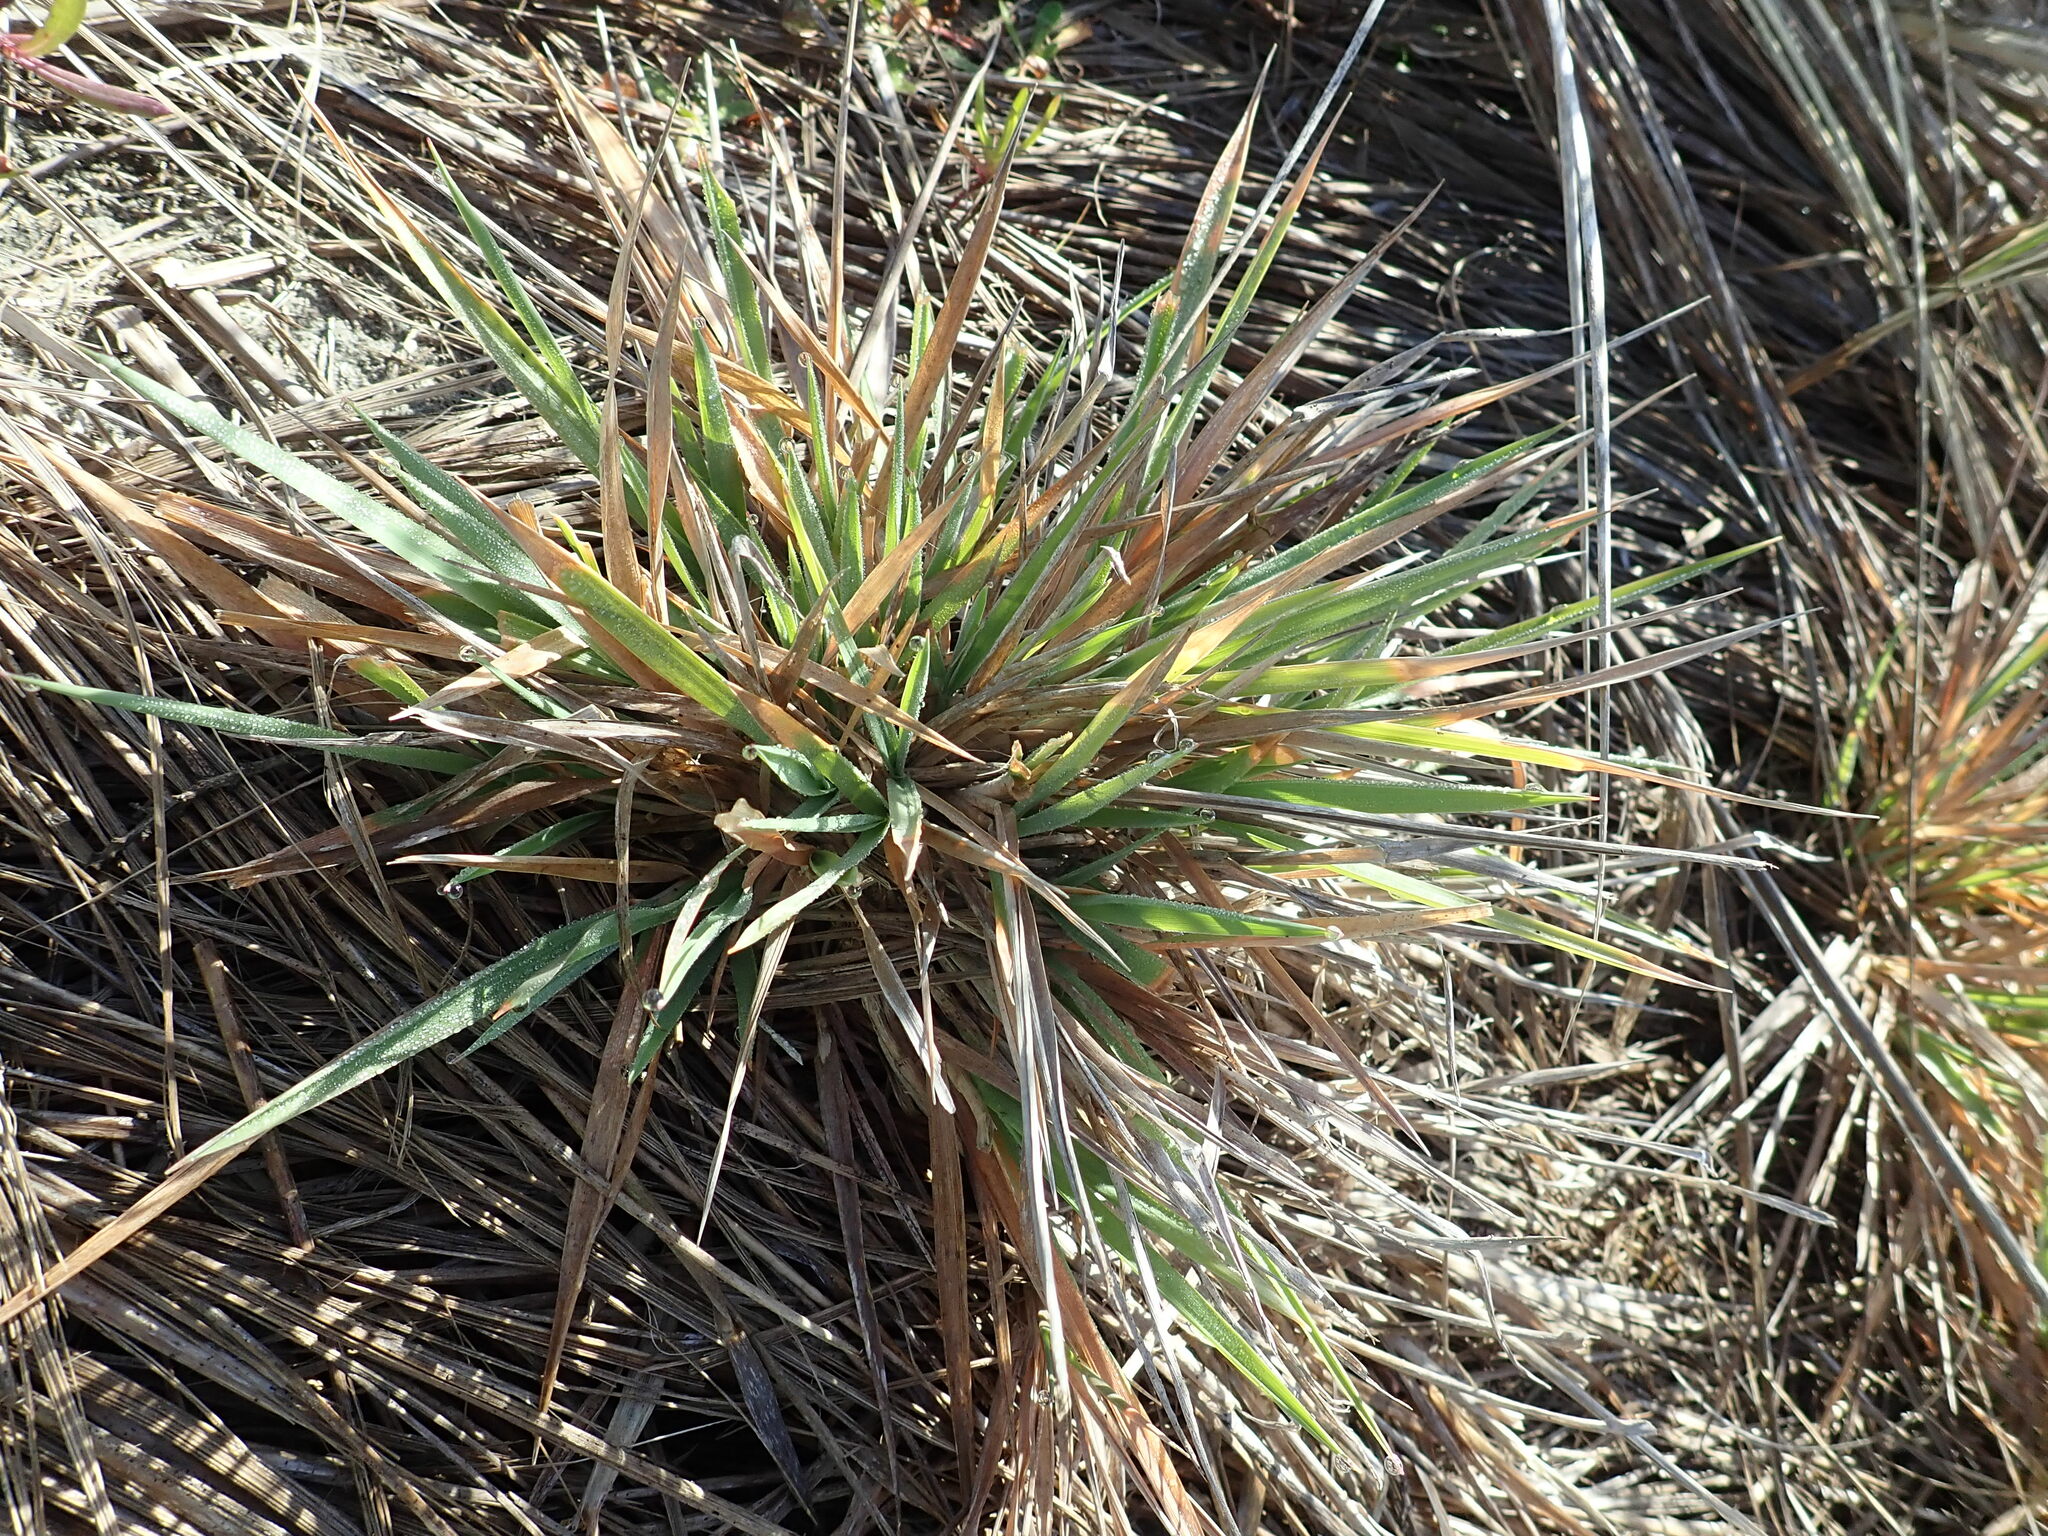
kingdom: Plantae
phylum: Tracheophyta
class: Liliopsida
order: Poales
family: Poaceae
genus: Lachnagrostis
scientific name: Lachnagrostis billardierei
